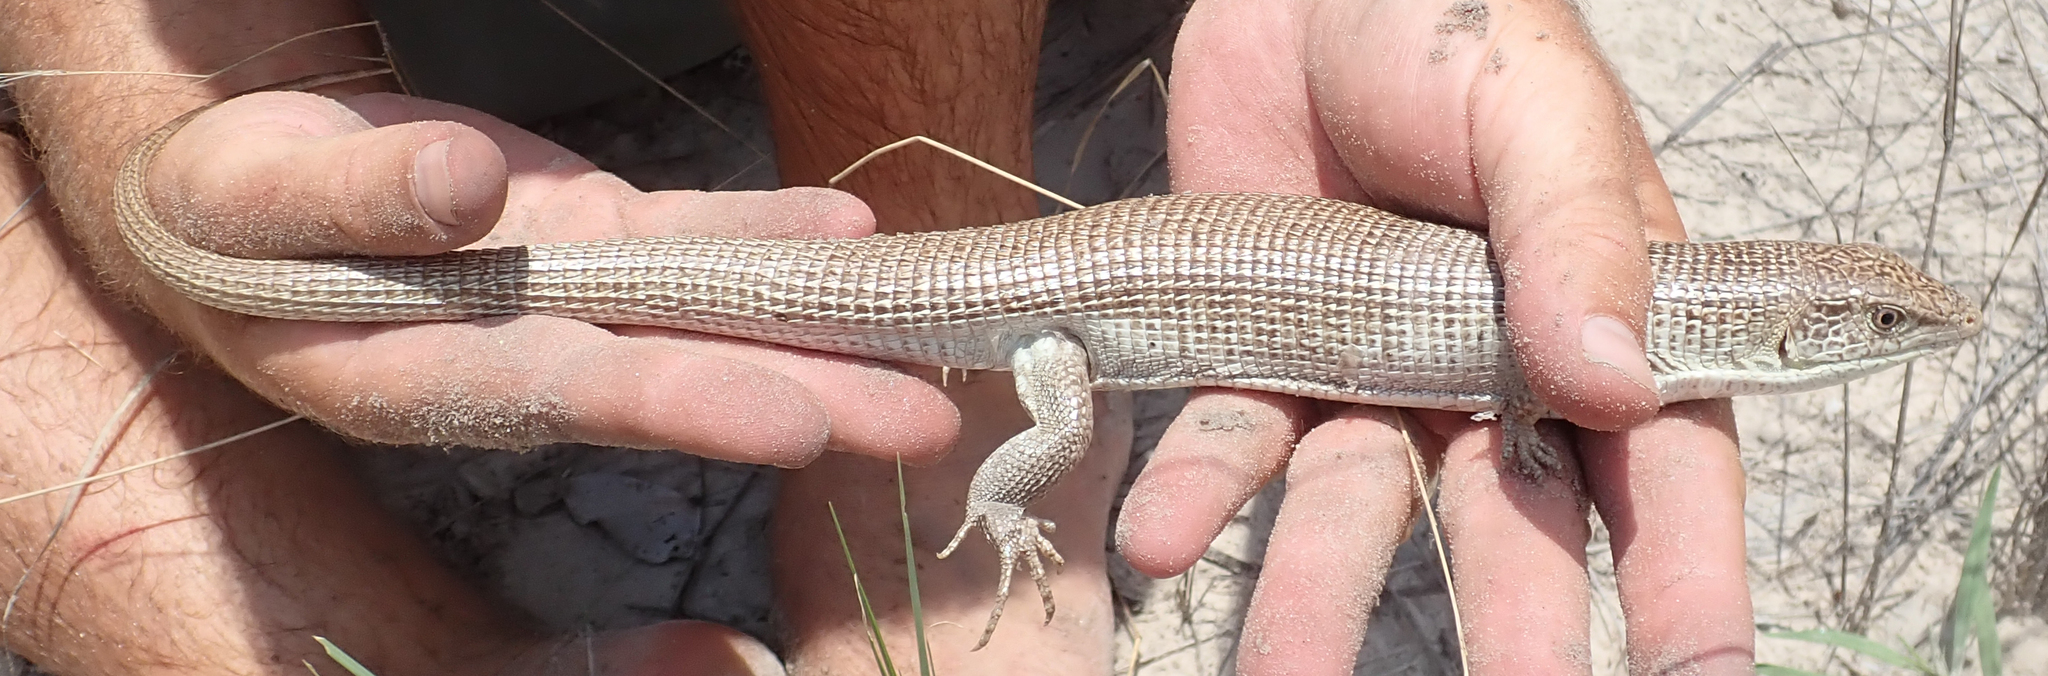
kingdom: Animalia
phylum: Chordata
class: Squamata
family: Gerrhosauridae
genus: Gerrhosaurus
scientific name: Gerrhosaurus auritus
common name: Kalahari plated lizard
